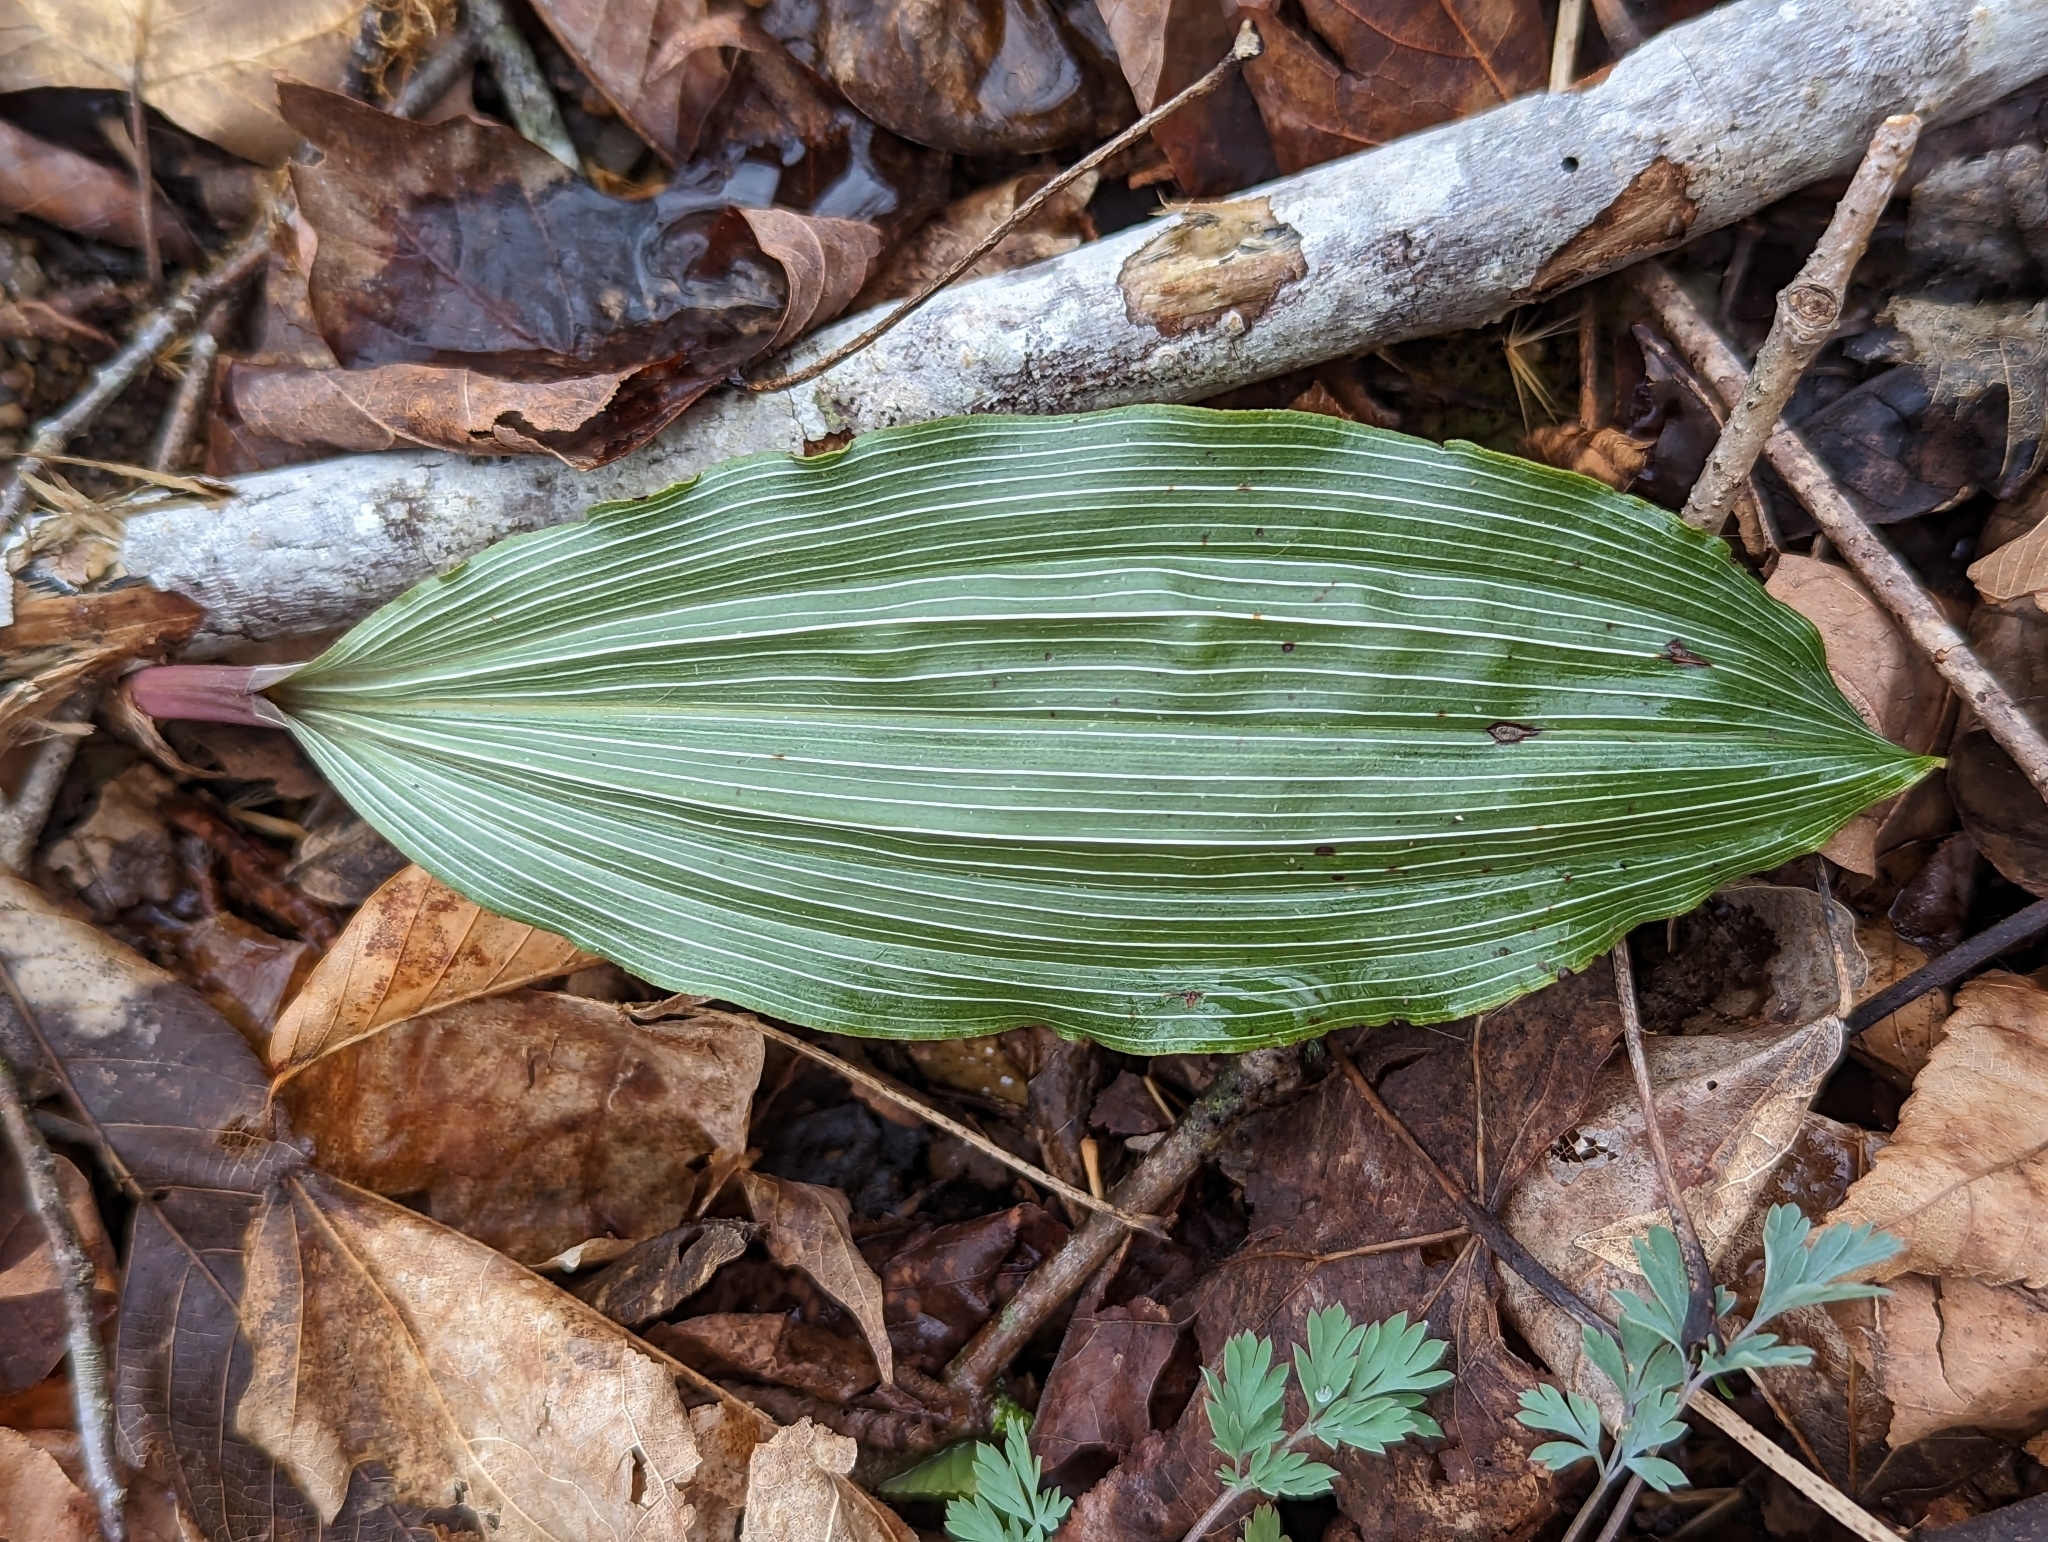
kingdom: Plantae
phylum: Tracheophyta
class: Liliopsida
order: Asparagales
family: Orchidaceae
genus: Aplectrum
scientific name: Aplectrum hyemale
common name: Adam-and-eve
